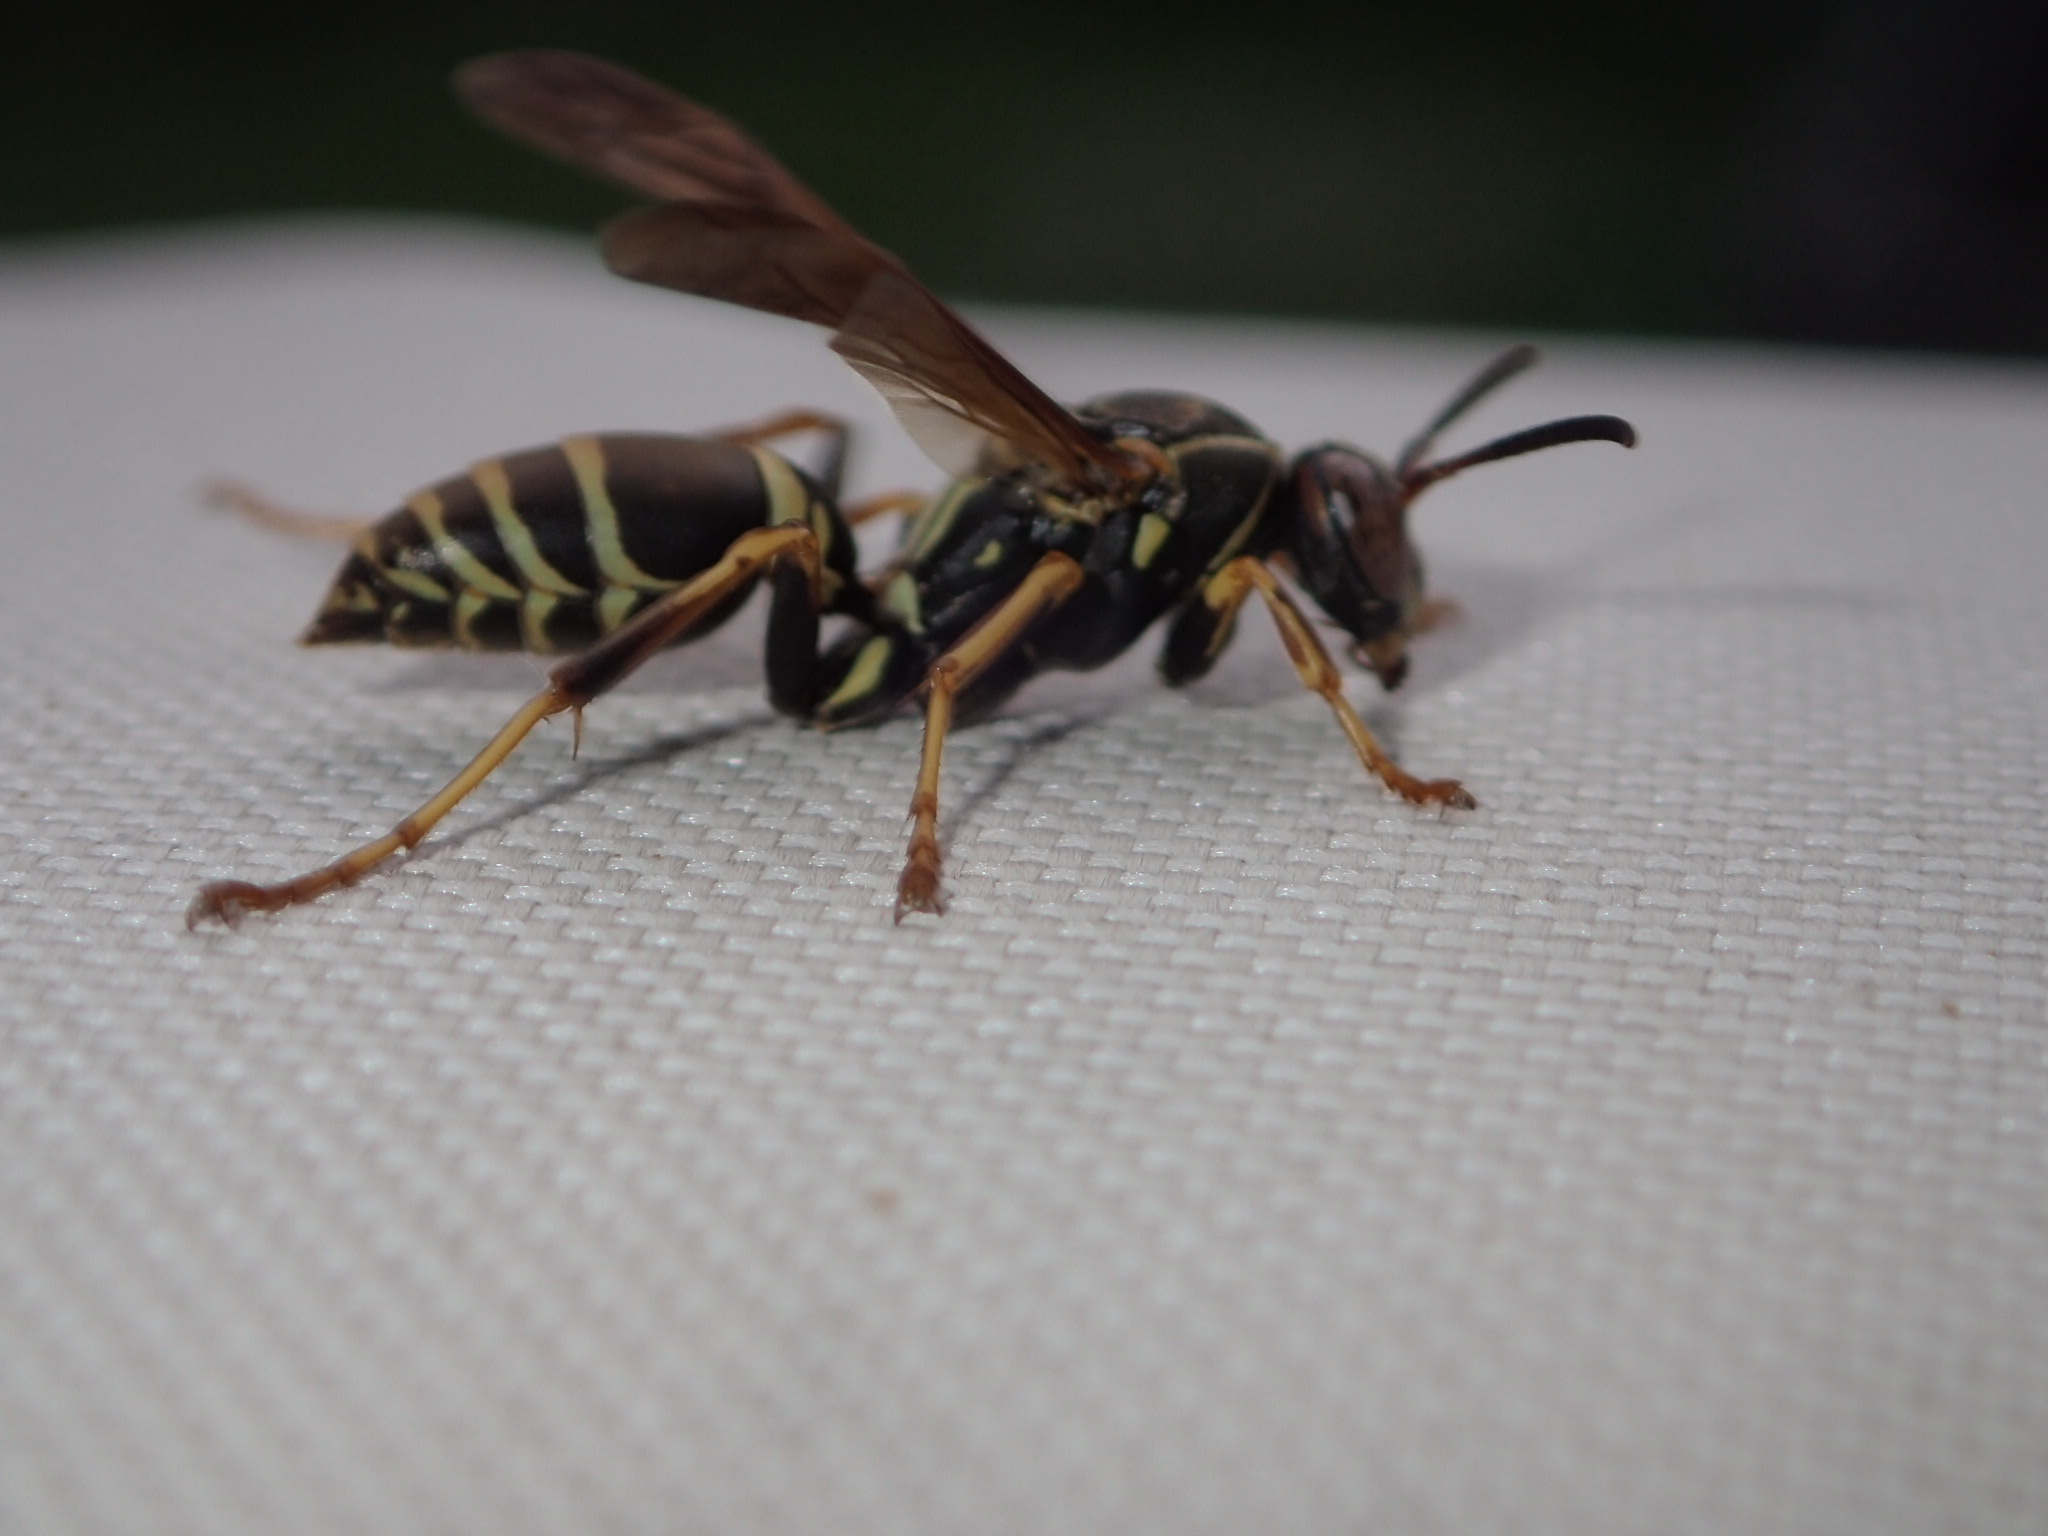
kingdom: Animalia
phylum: Arthropoda
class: Insecta
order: Hymenoptera
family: Eumenidae
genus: Polistes
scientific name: Polistes fuscatus
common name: Dark paper wasp
